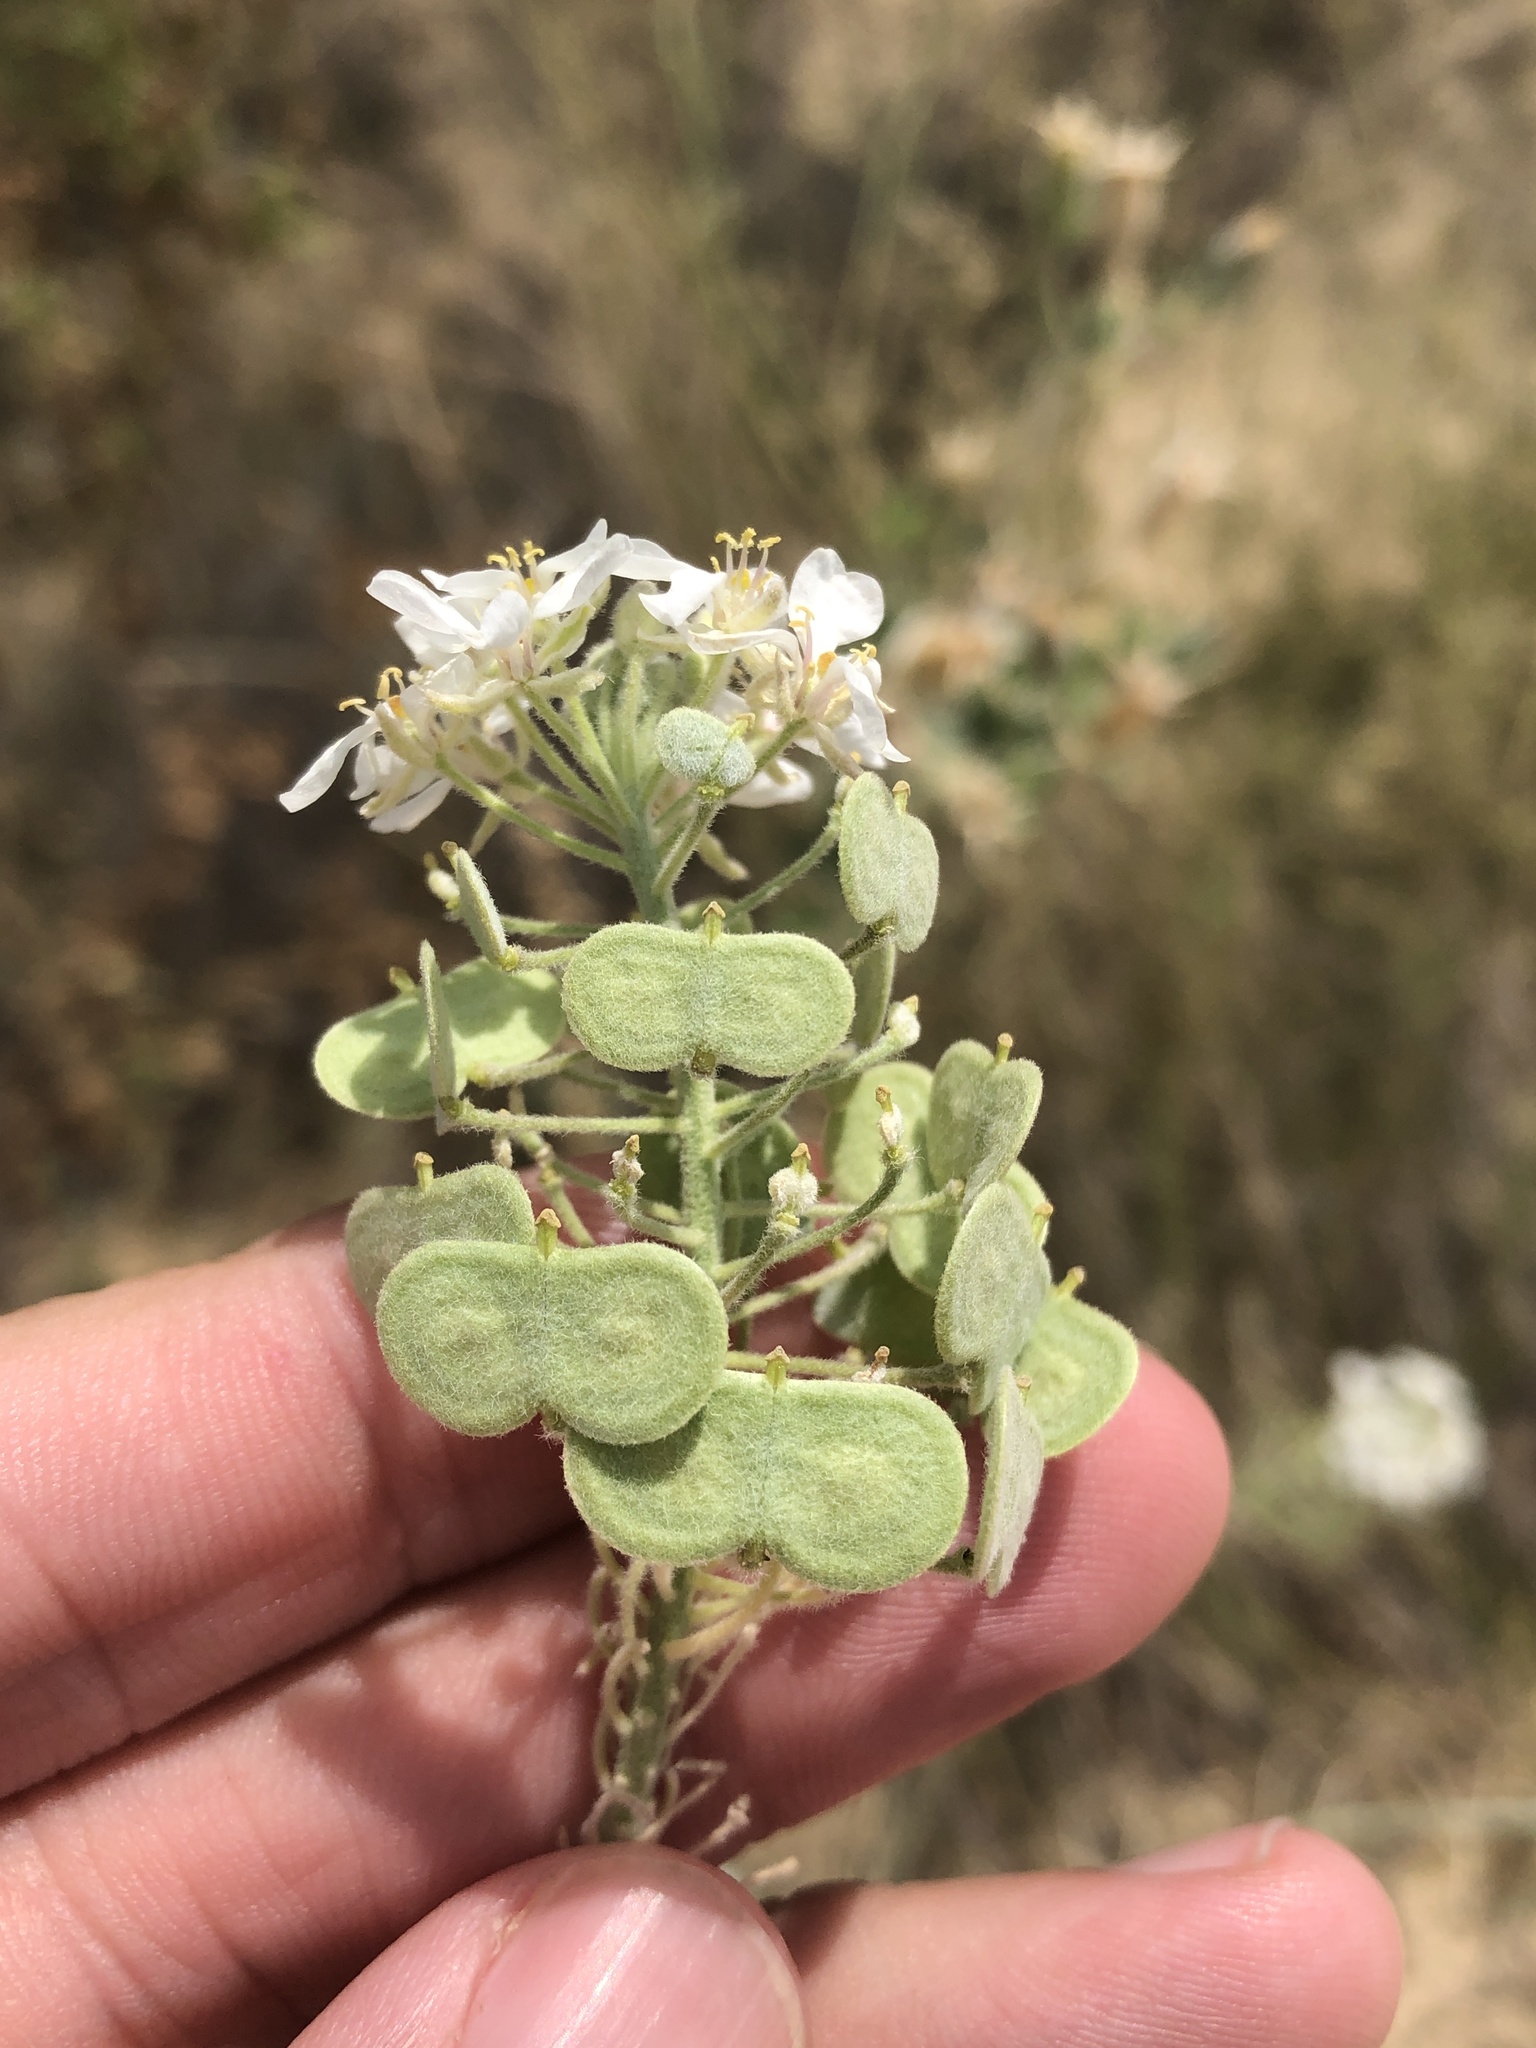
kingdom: Plantae
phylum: Tracheophyta
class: Magnoliopsida
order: Brassicales
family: Brassicaceae
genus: Dimorphocarpa
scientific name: Dimorphocarpa wislizenii
